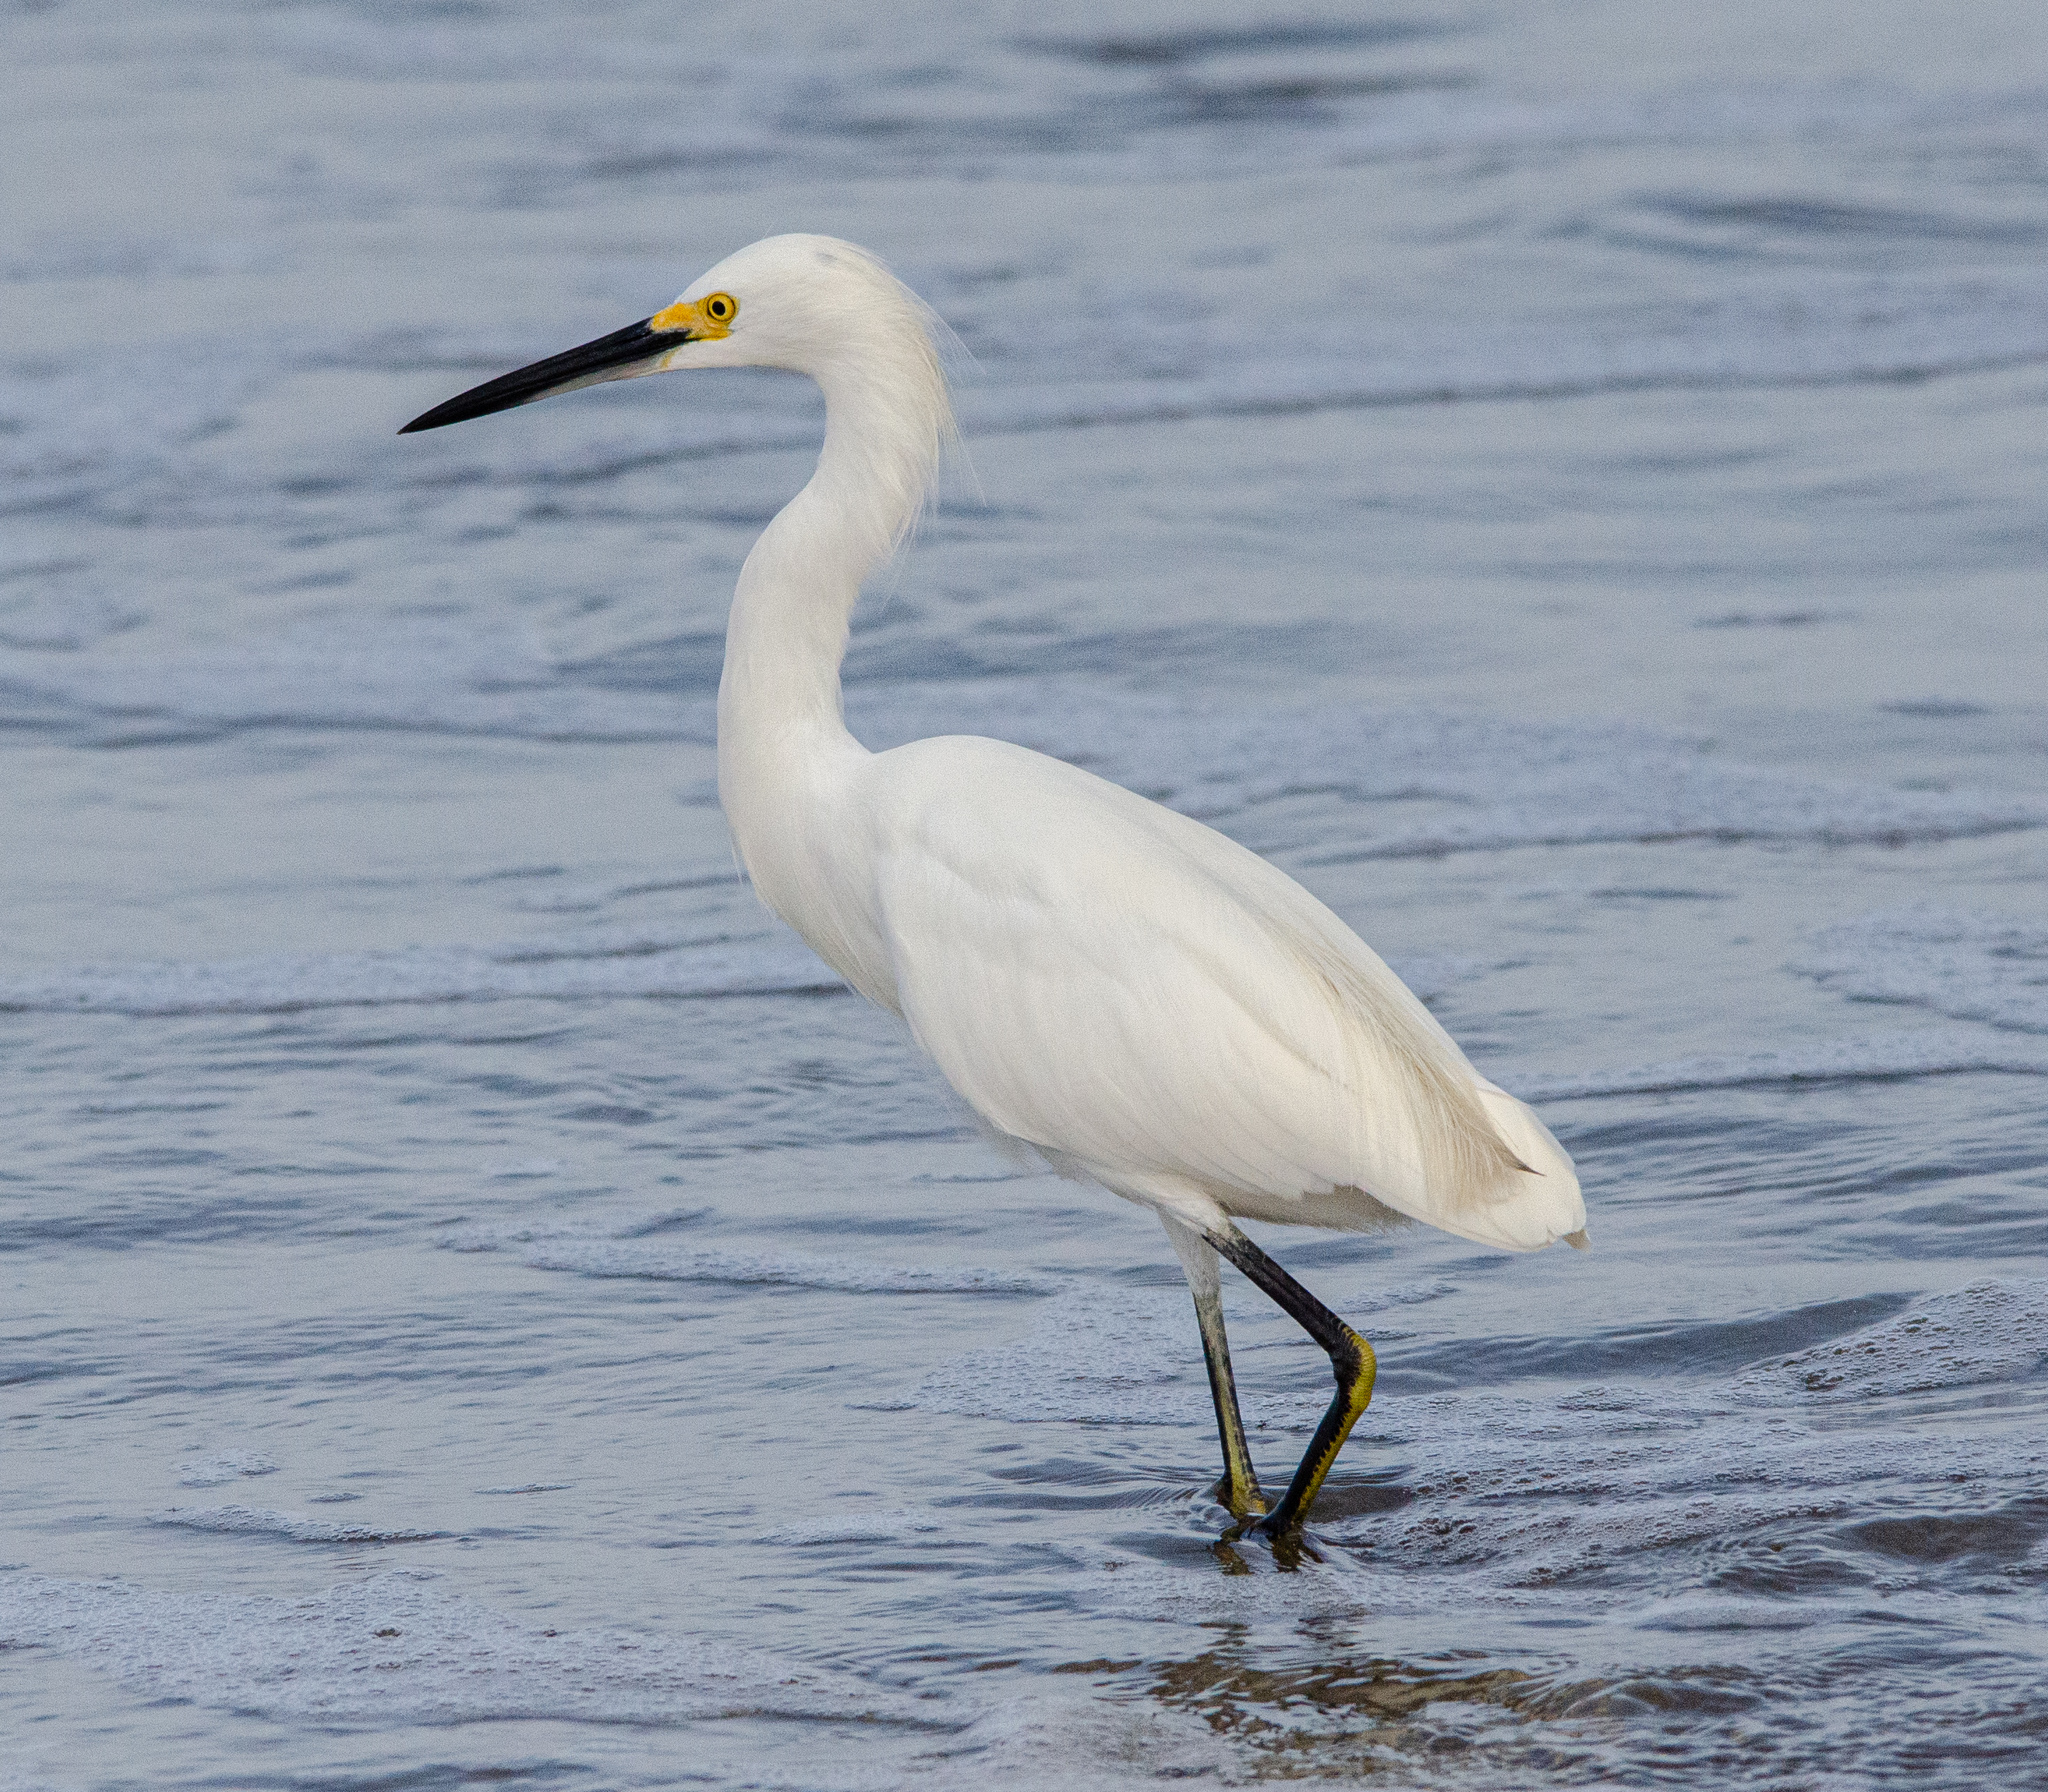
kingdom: Animalia
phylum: Chordata
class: Aves
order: Pelecaniformes
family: Ardeidae
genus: Egretta
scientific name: Egretta thula
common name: Snowy egret
